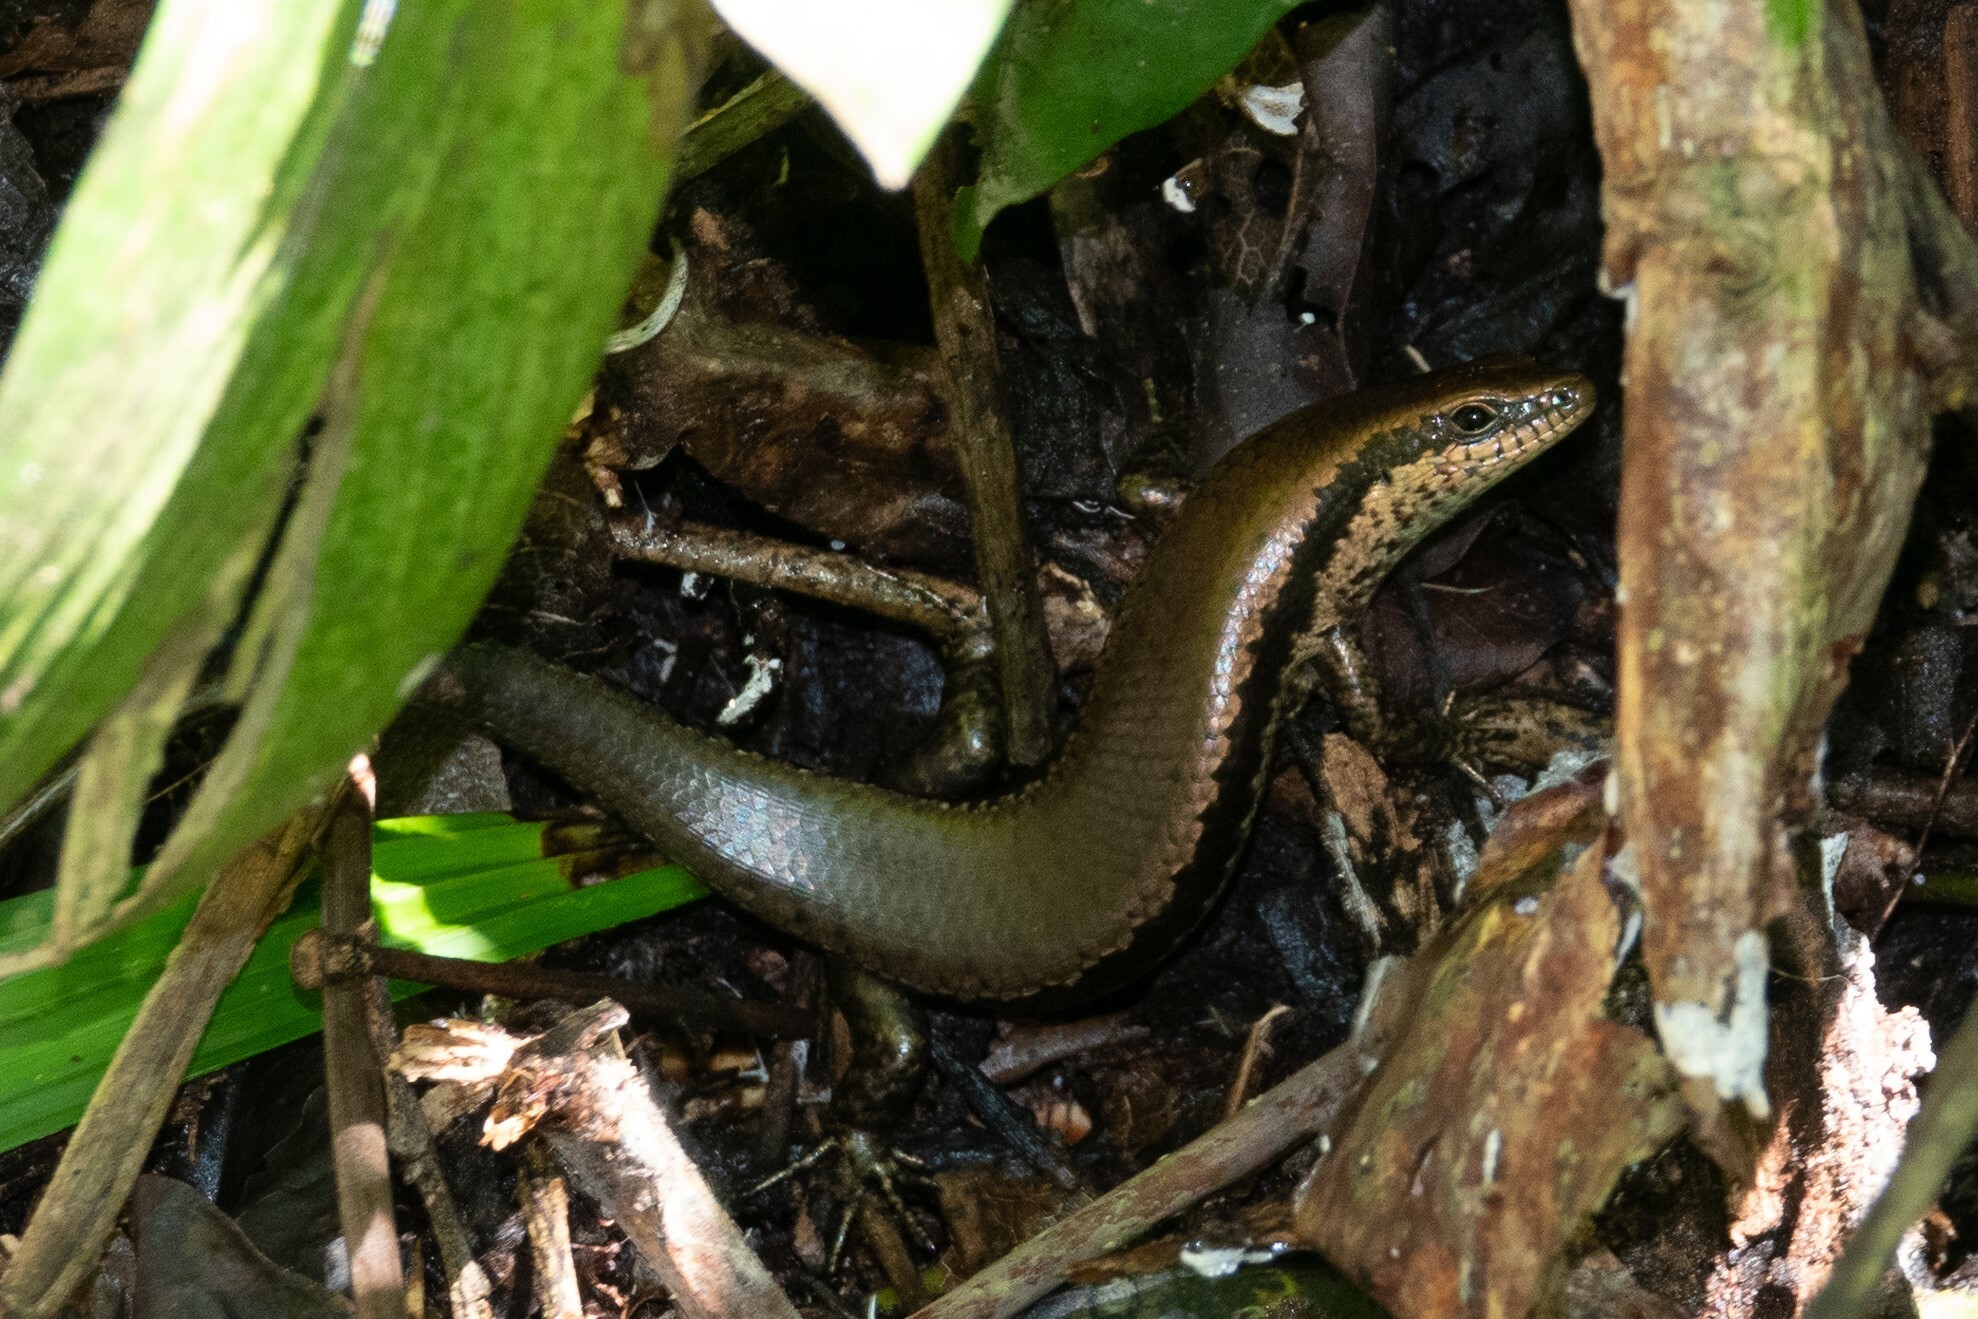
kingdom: Animalia
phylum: Chordata
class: Squamata
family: Scincidae
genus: Copeoglossum
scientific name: Copeoglossum nigropunctatum
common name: Black-spotted skink
